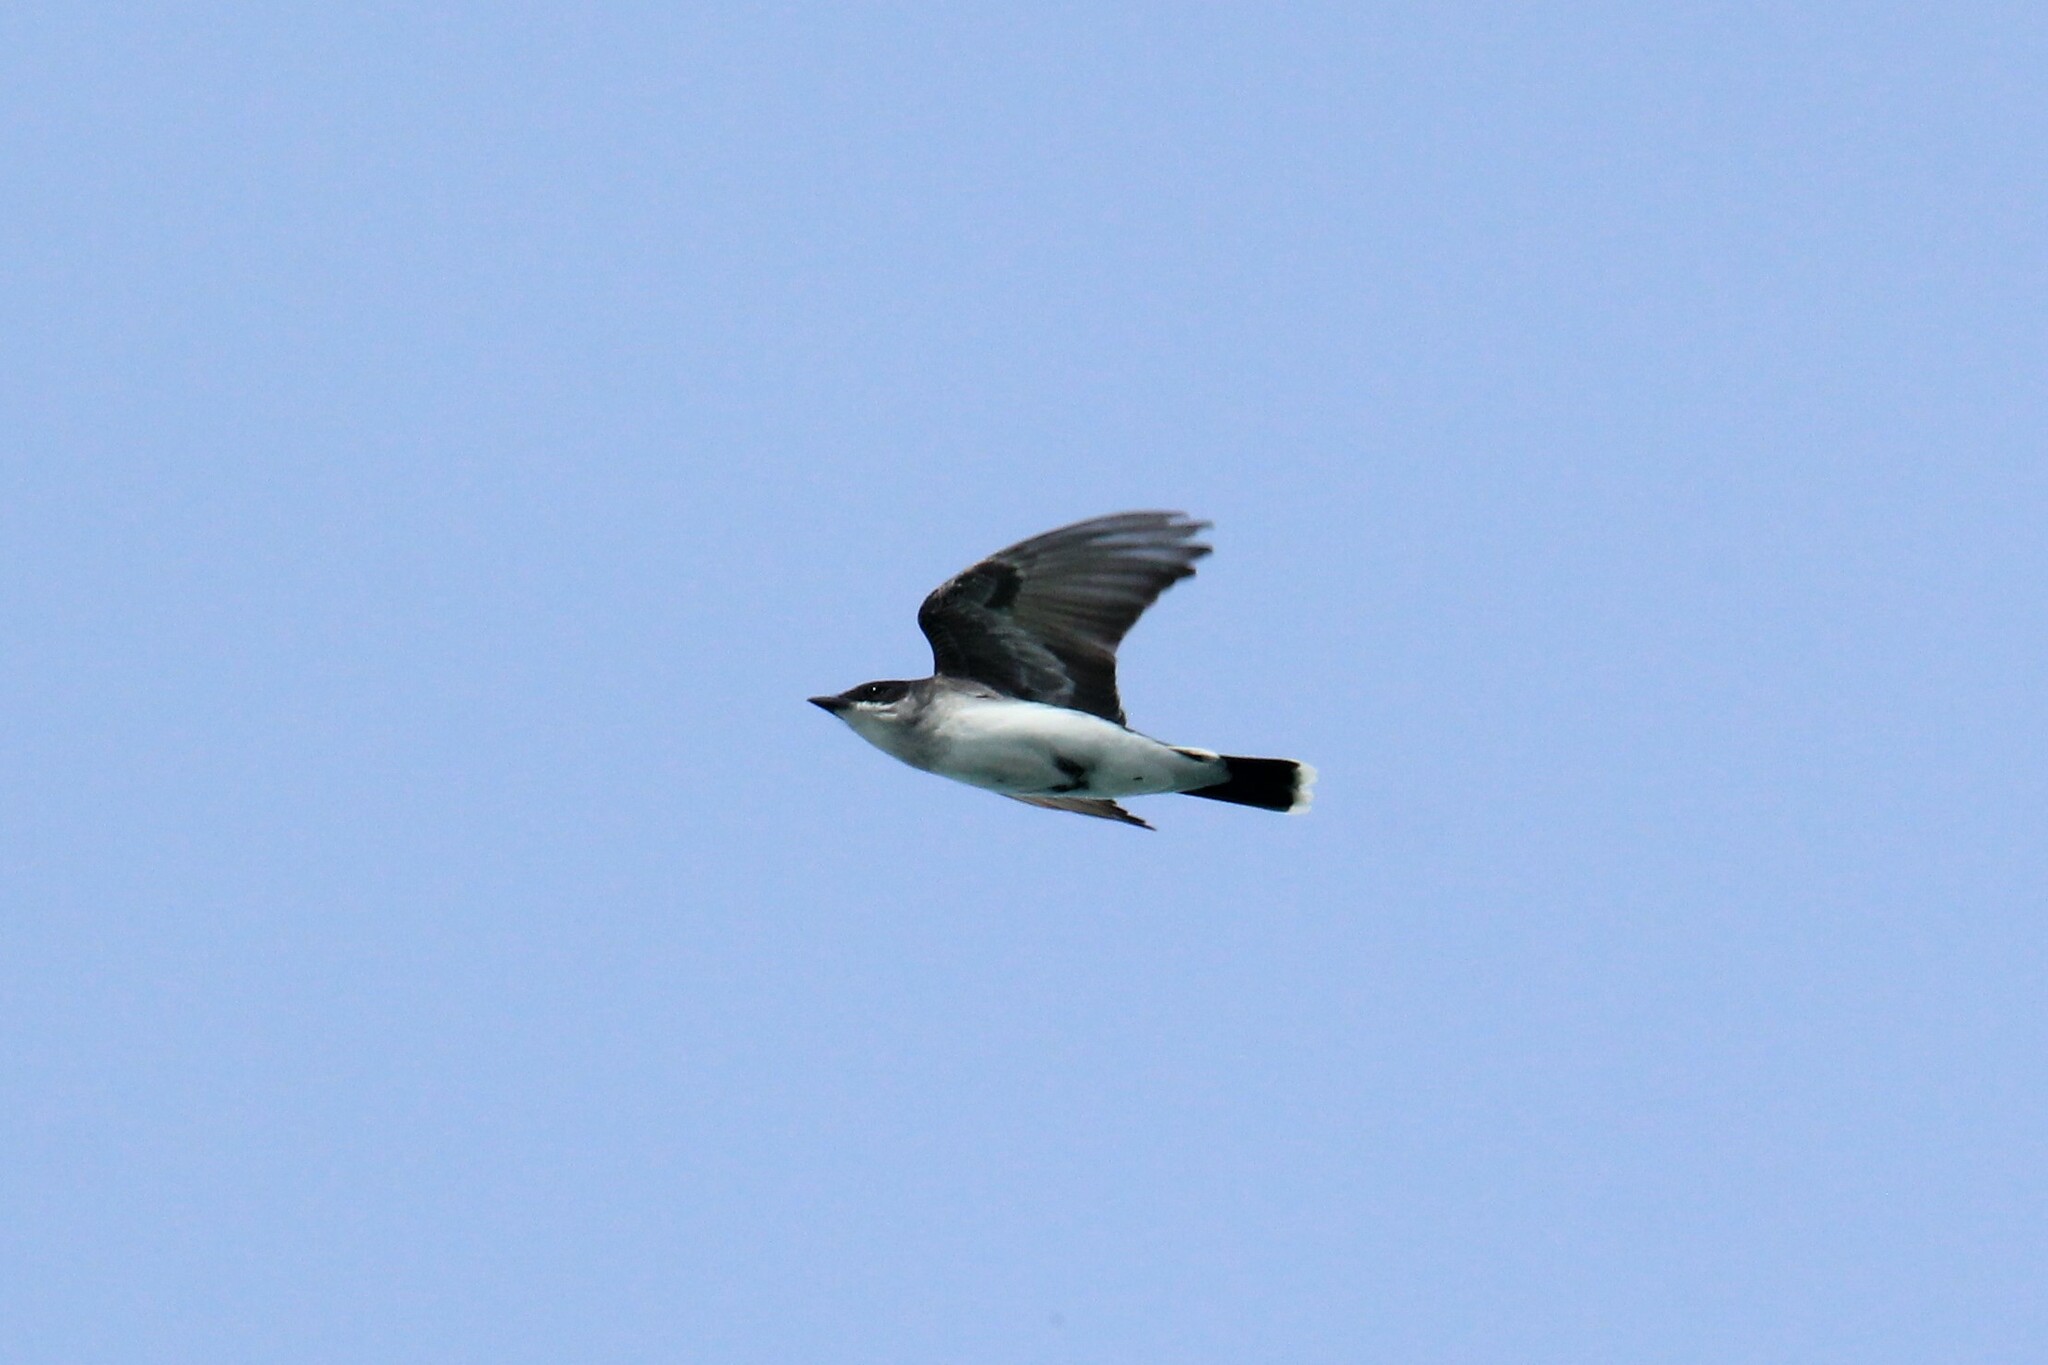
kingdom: Animalia
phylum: Chordata
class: Aves
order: Passeriformes
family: Tyrannidae
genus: Tyrannus
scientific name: Tyrannus tyrannus
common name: Eastern kingbird
